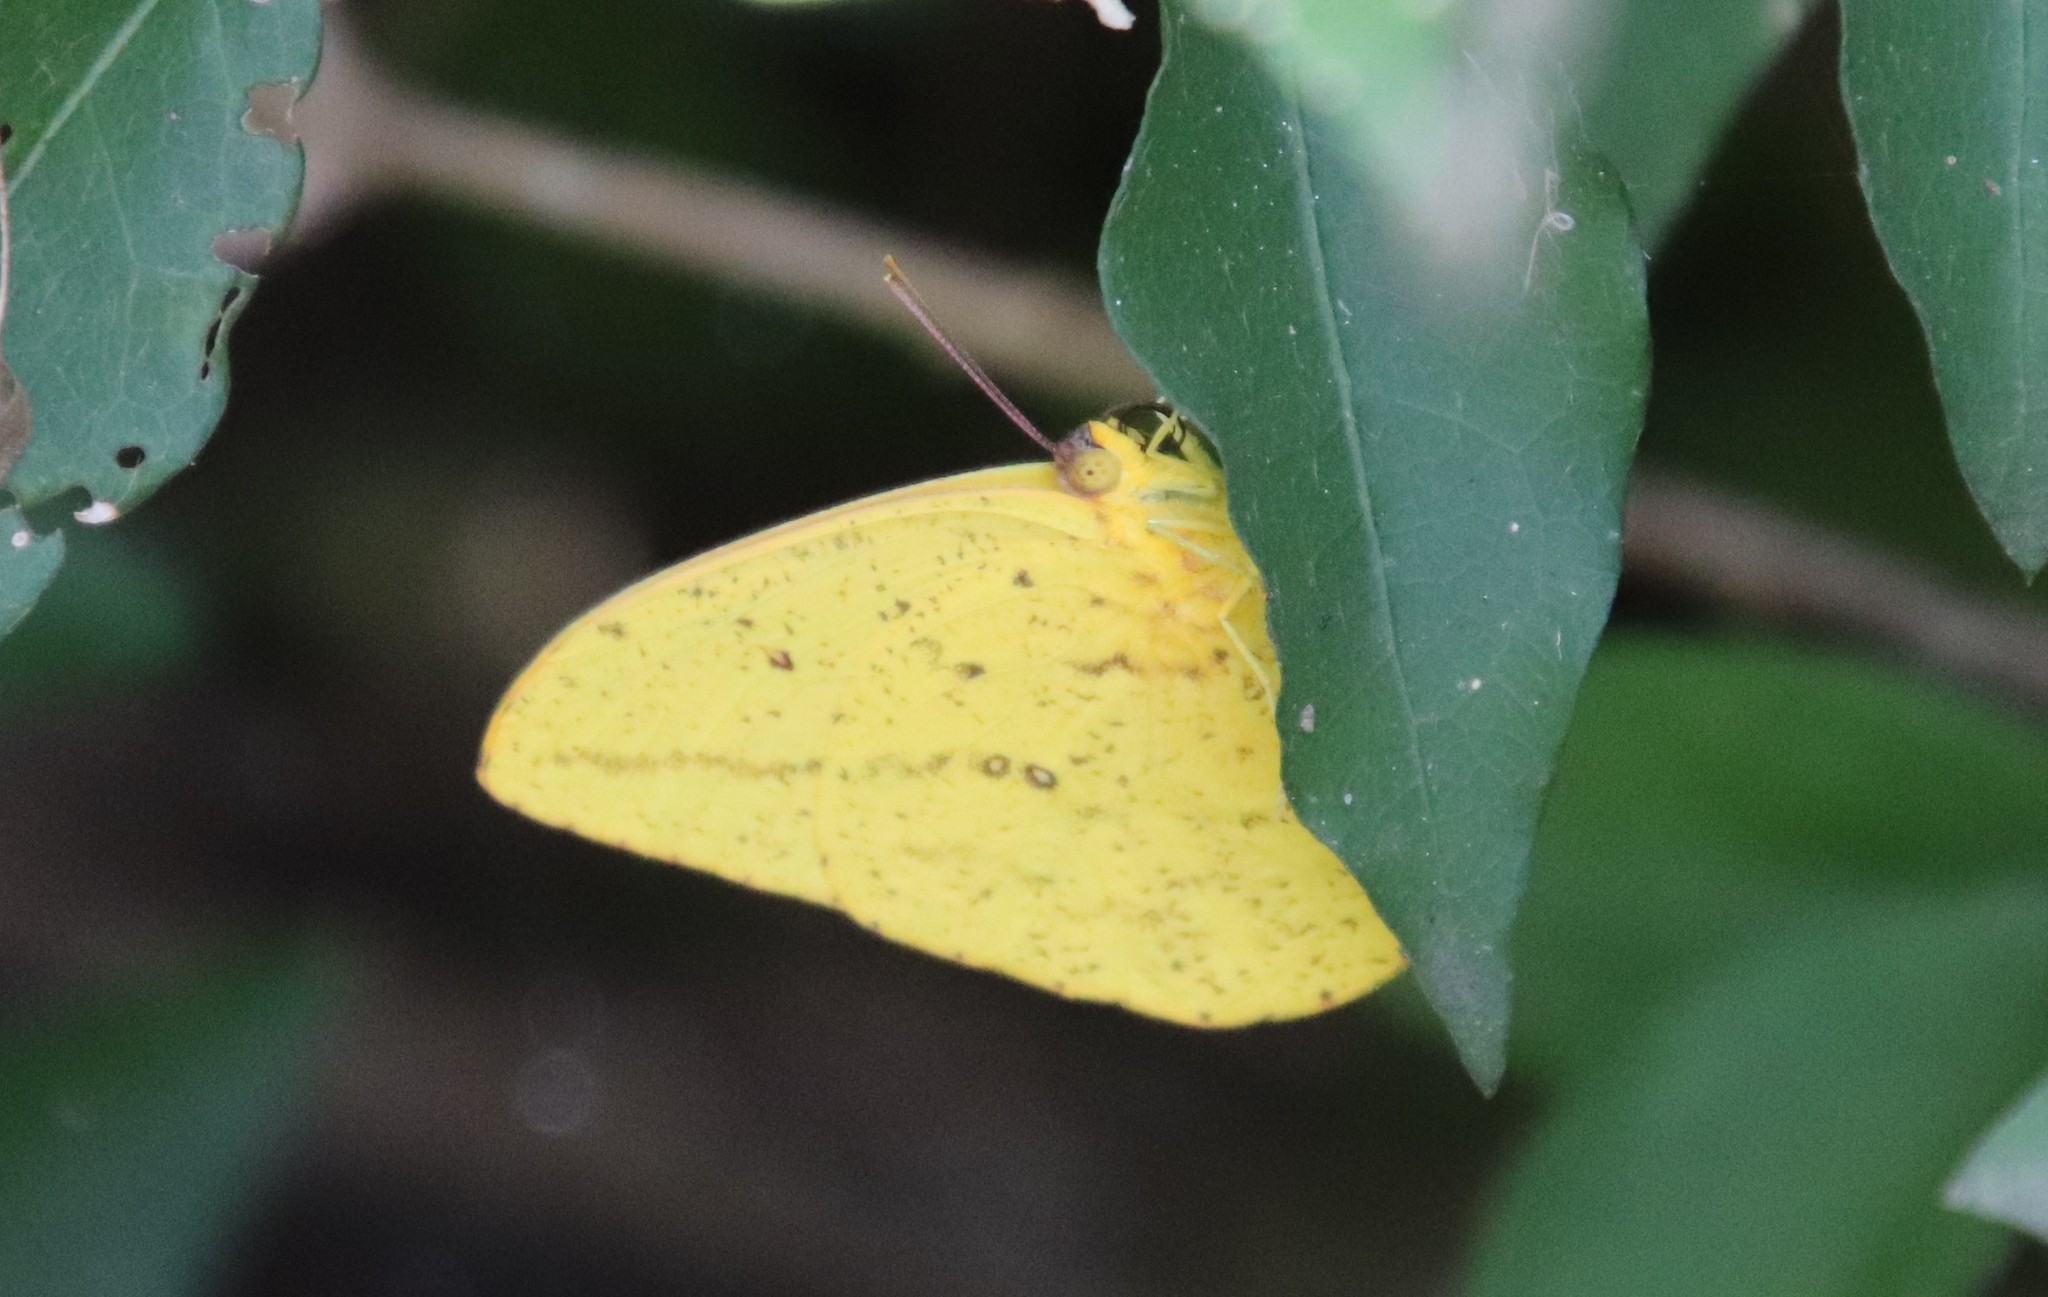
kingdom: Animalia
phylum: Arthropoda
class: Insecta
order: Lepidoptera
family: Pieridae
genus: Phoebis
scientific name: Phoebis agarithe
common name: Large orange sulphur
